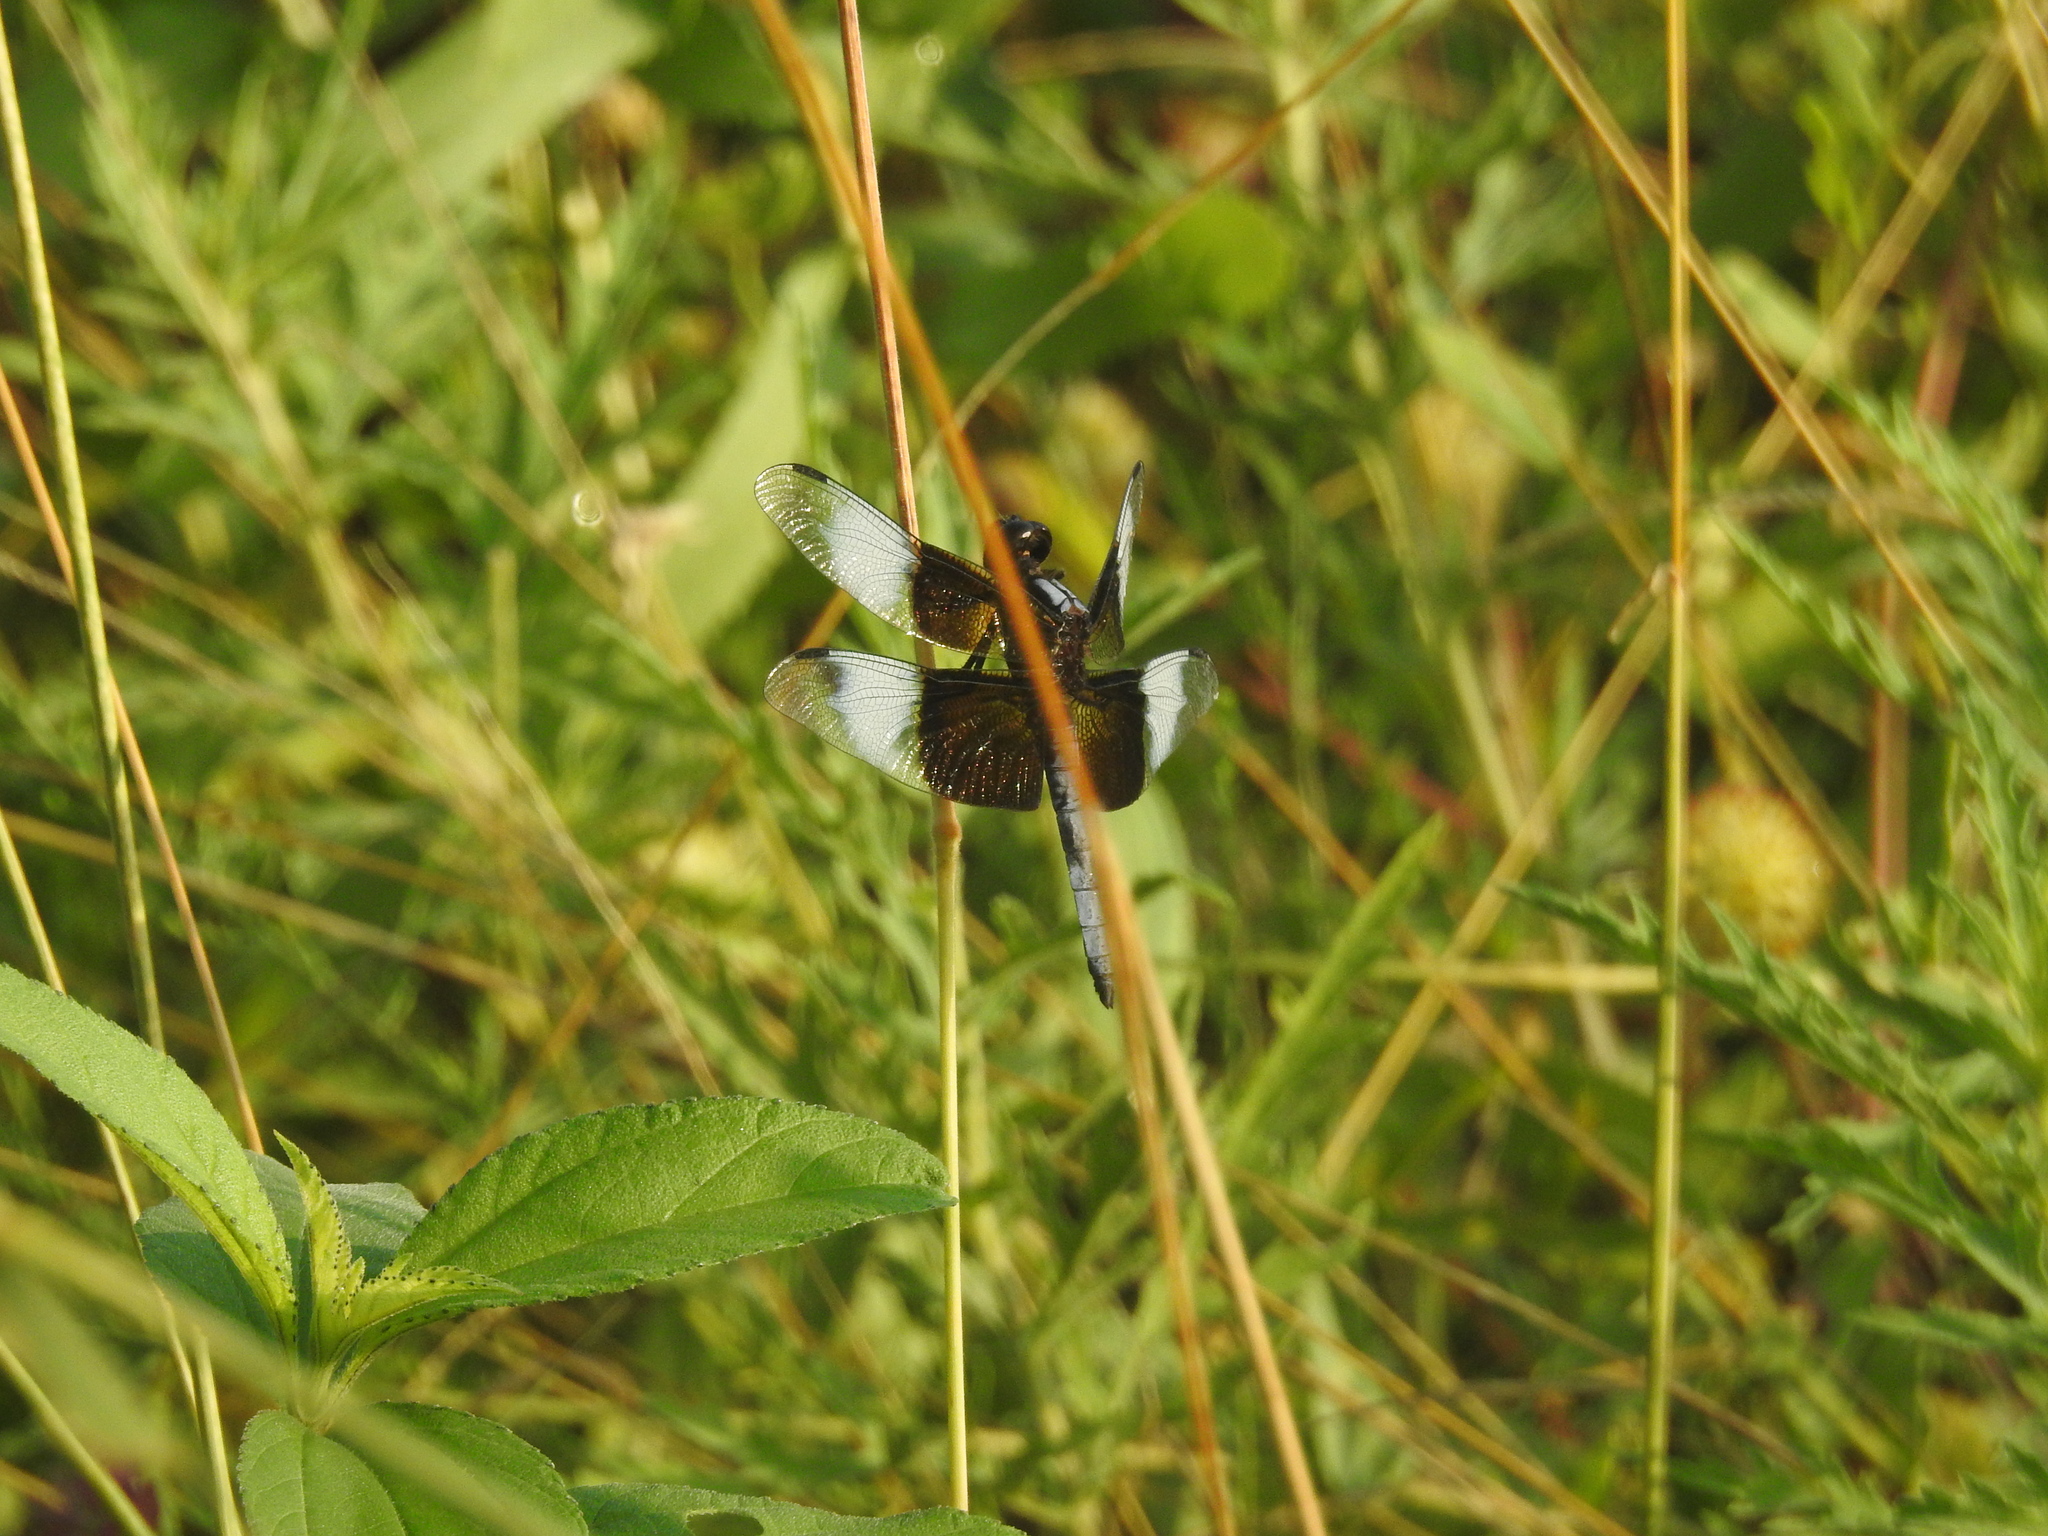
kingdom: Animalia
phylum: Arthropoda
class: Insecta
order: Odonata
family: Libellulidae
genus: Libellula
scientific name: Libellula luctuosa
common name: Widow skimmer
